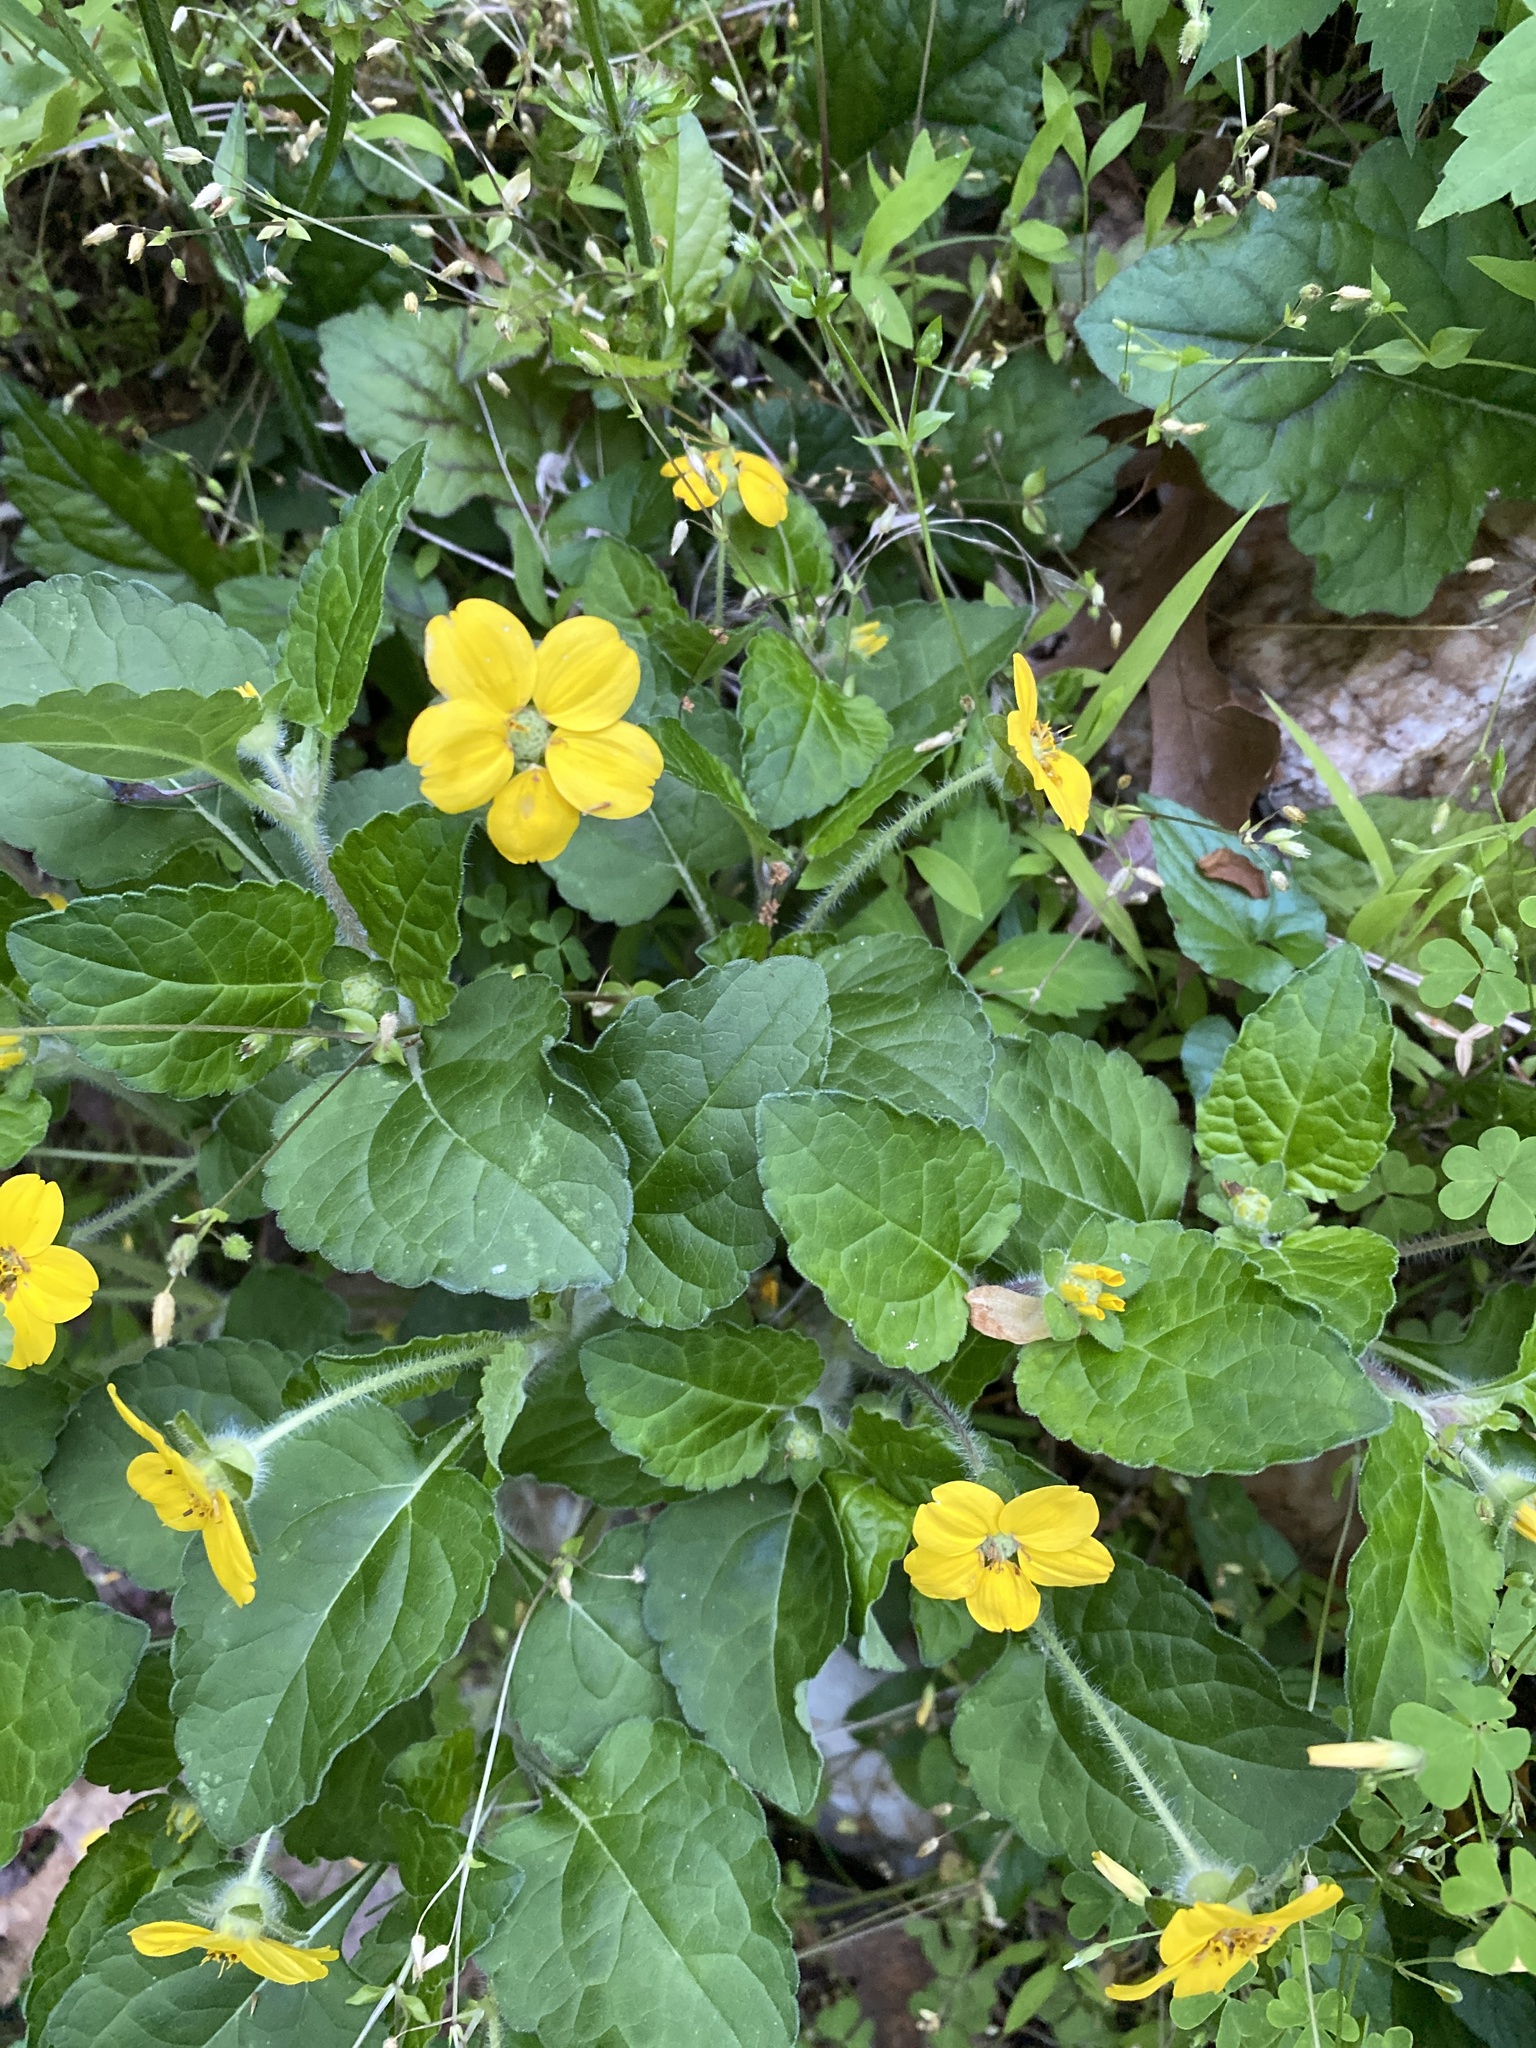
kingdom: Plantae
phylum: Tracheophyta
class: Magnoliopsida
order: Asterales
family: Asteraceae
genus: Chrysogonum
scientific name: Chrysogonum virginianum
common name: Golden-knee
